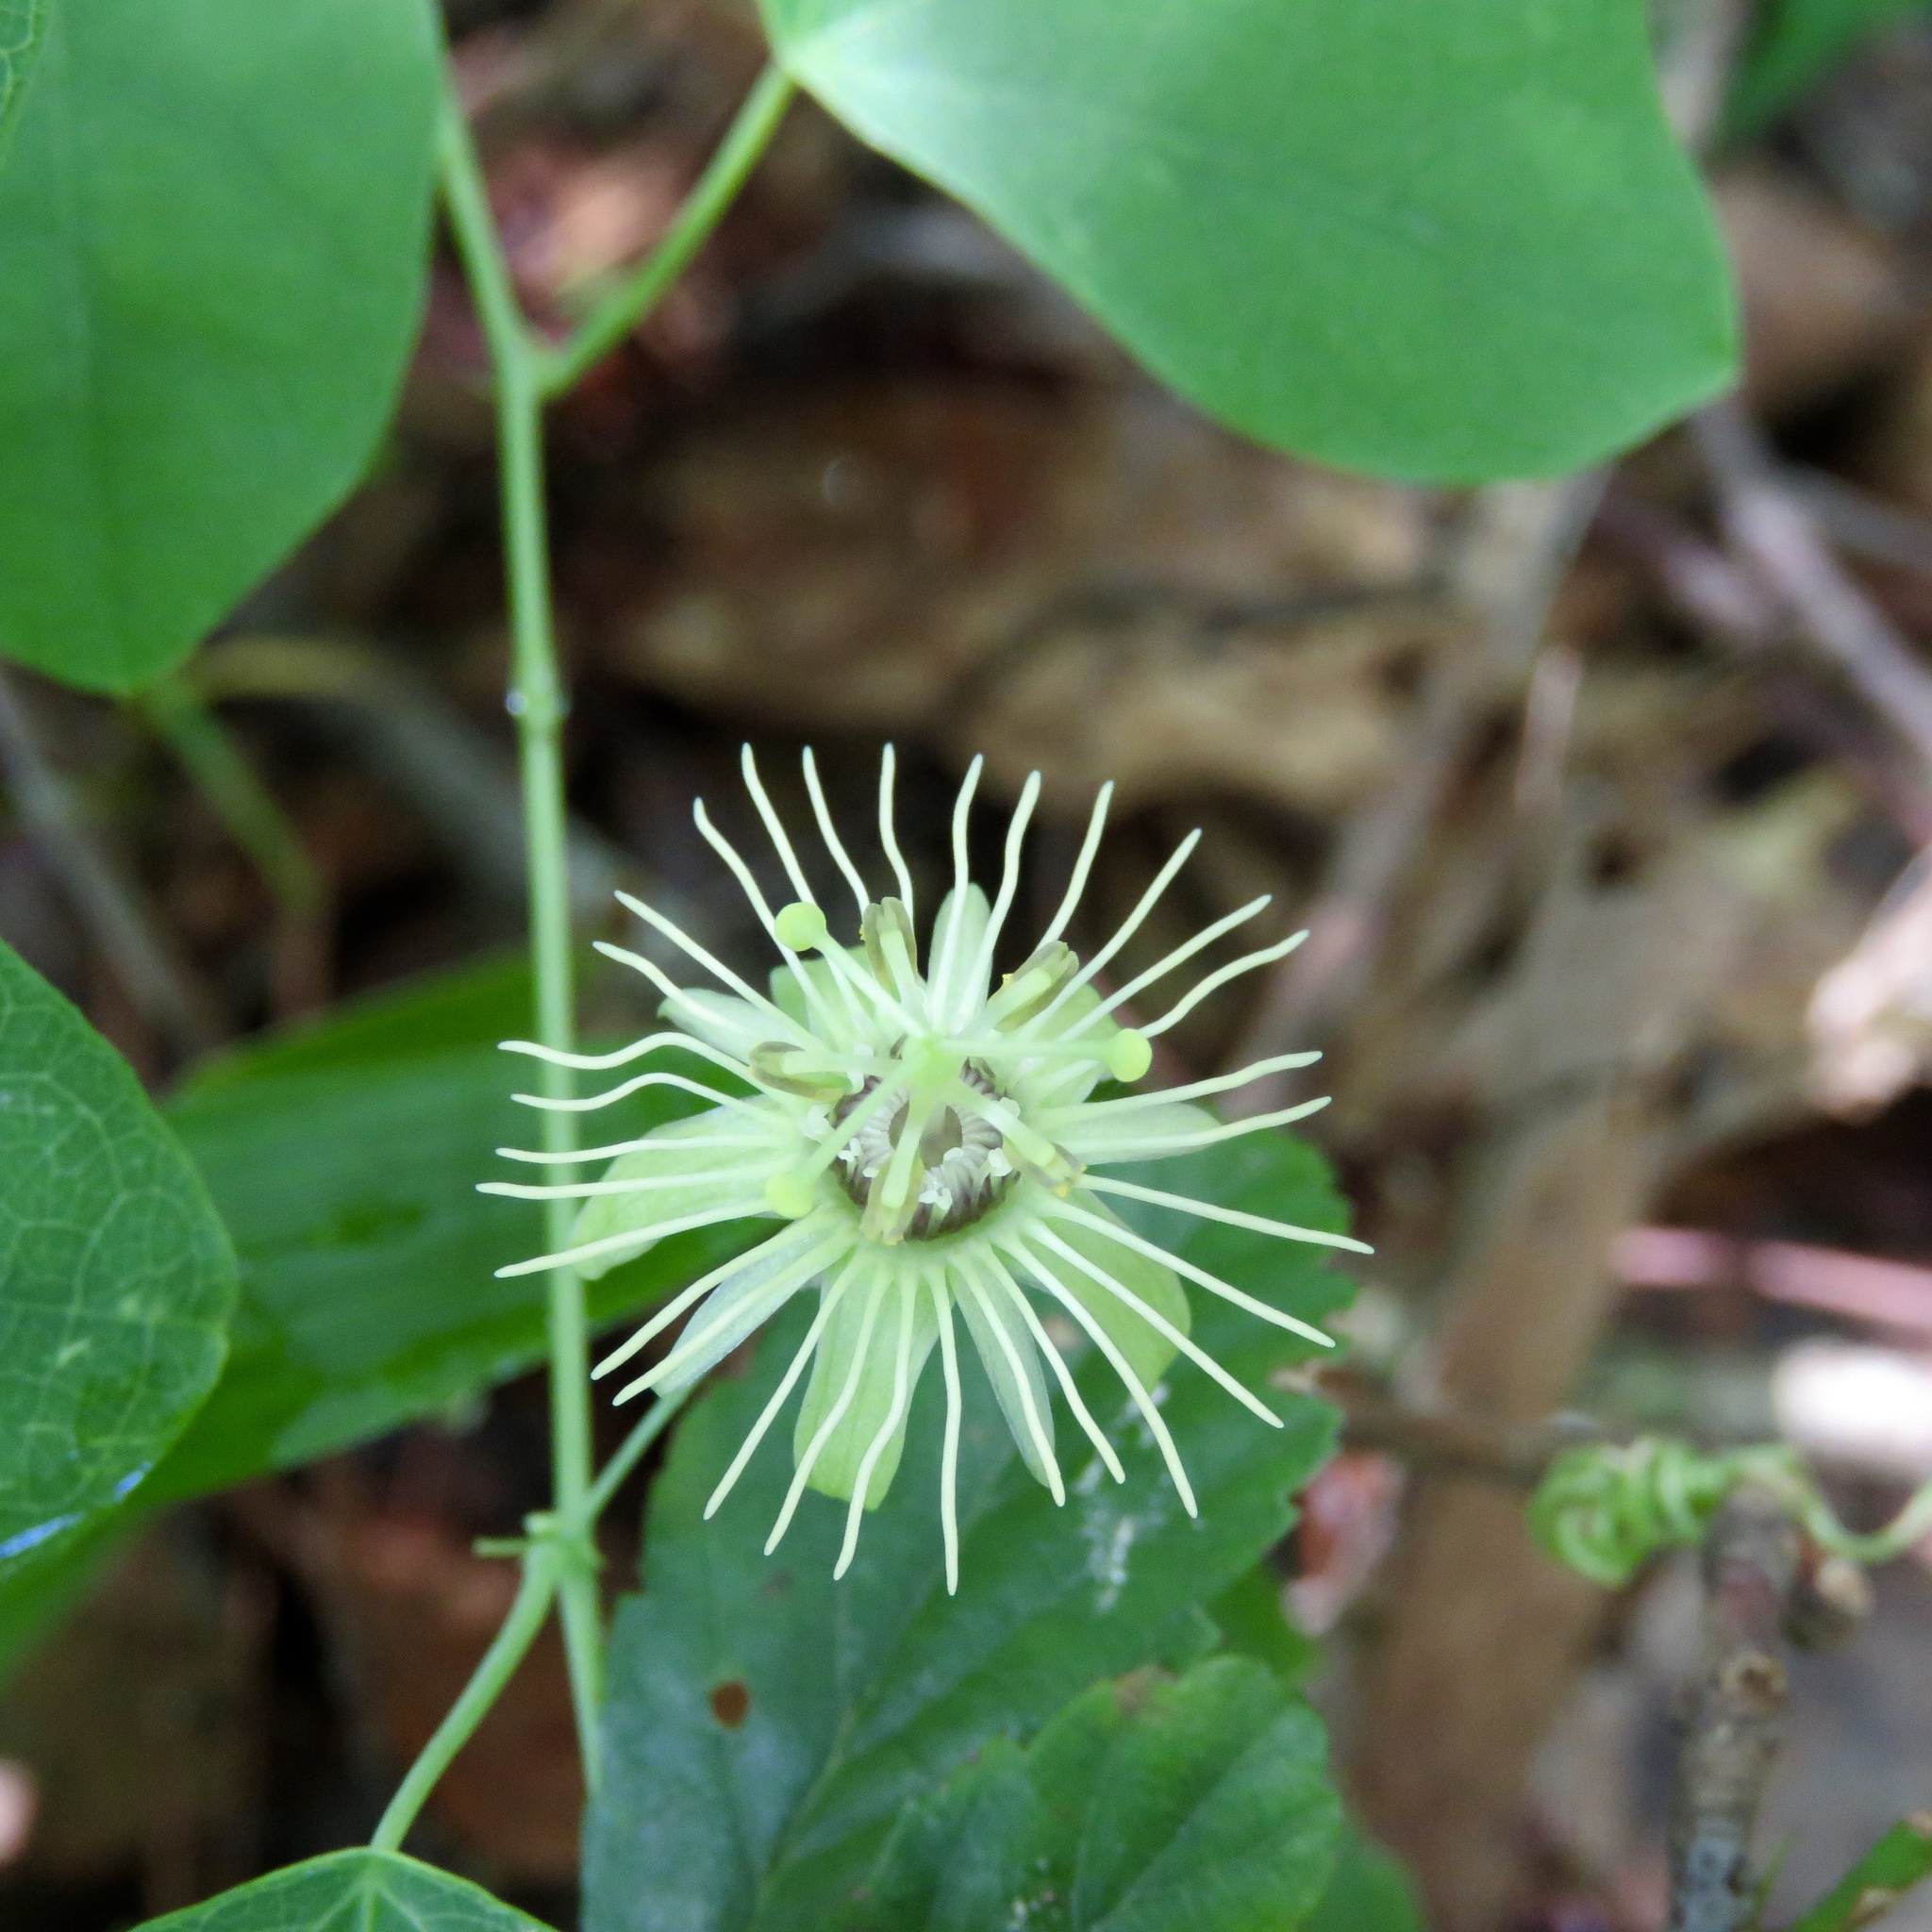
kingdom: Plantae
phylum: Tracheophyta
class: Magnoliopsida
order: Malpighiales
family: Passifloraceae
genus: Passiflora
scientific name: Passiflora lutea
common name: Yellow passionflower
